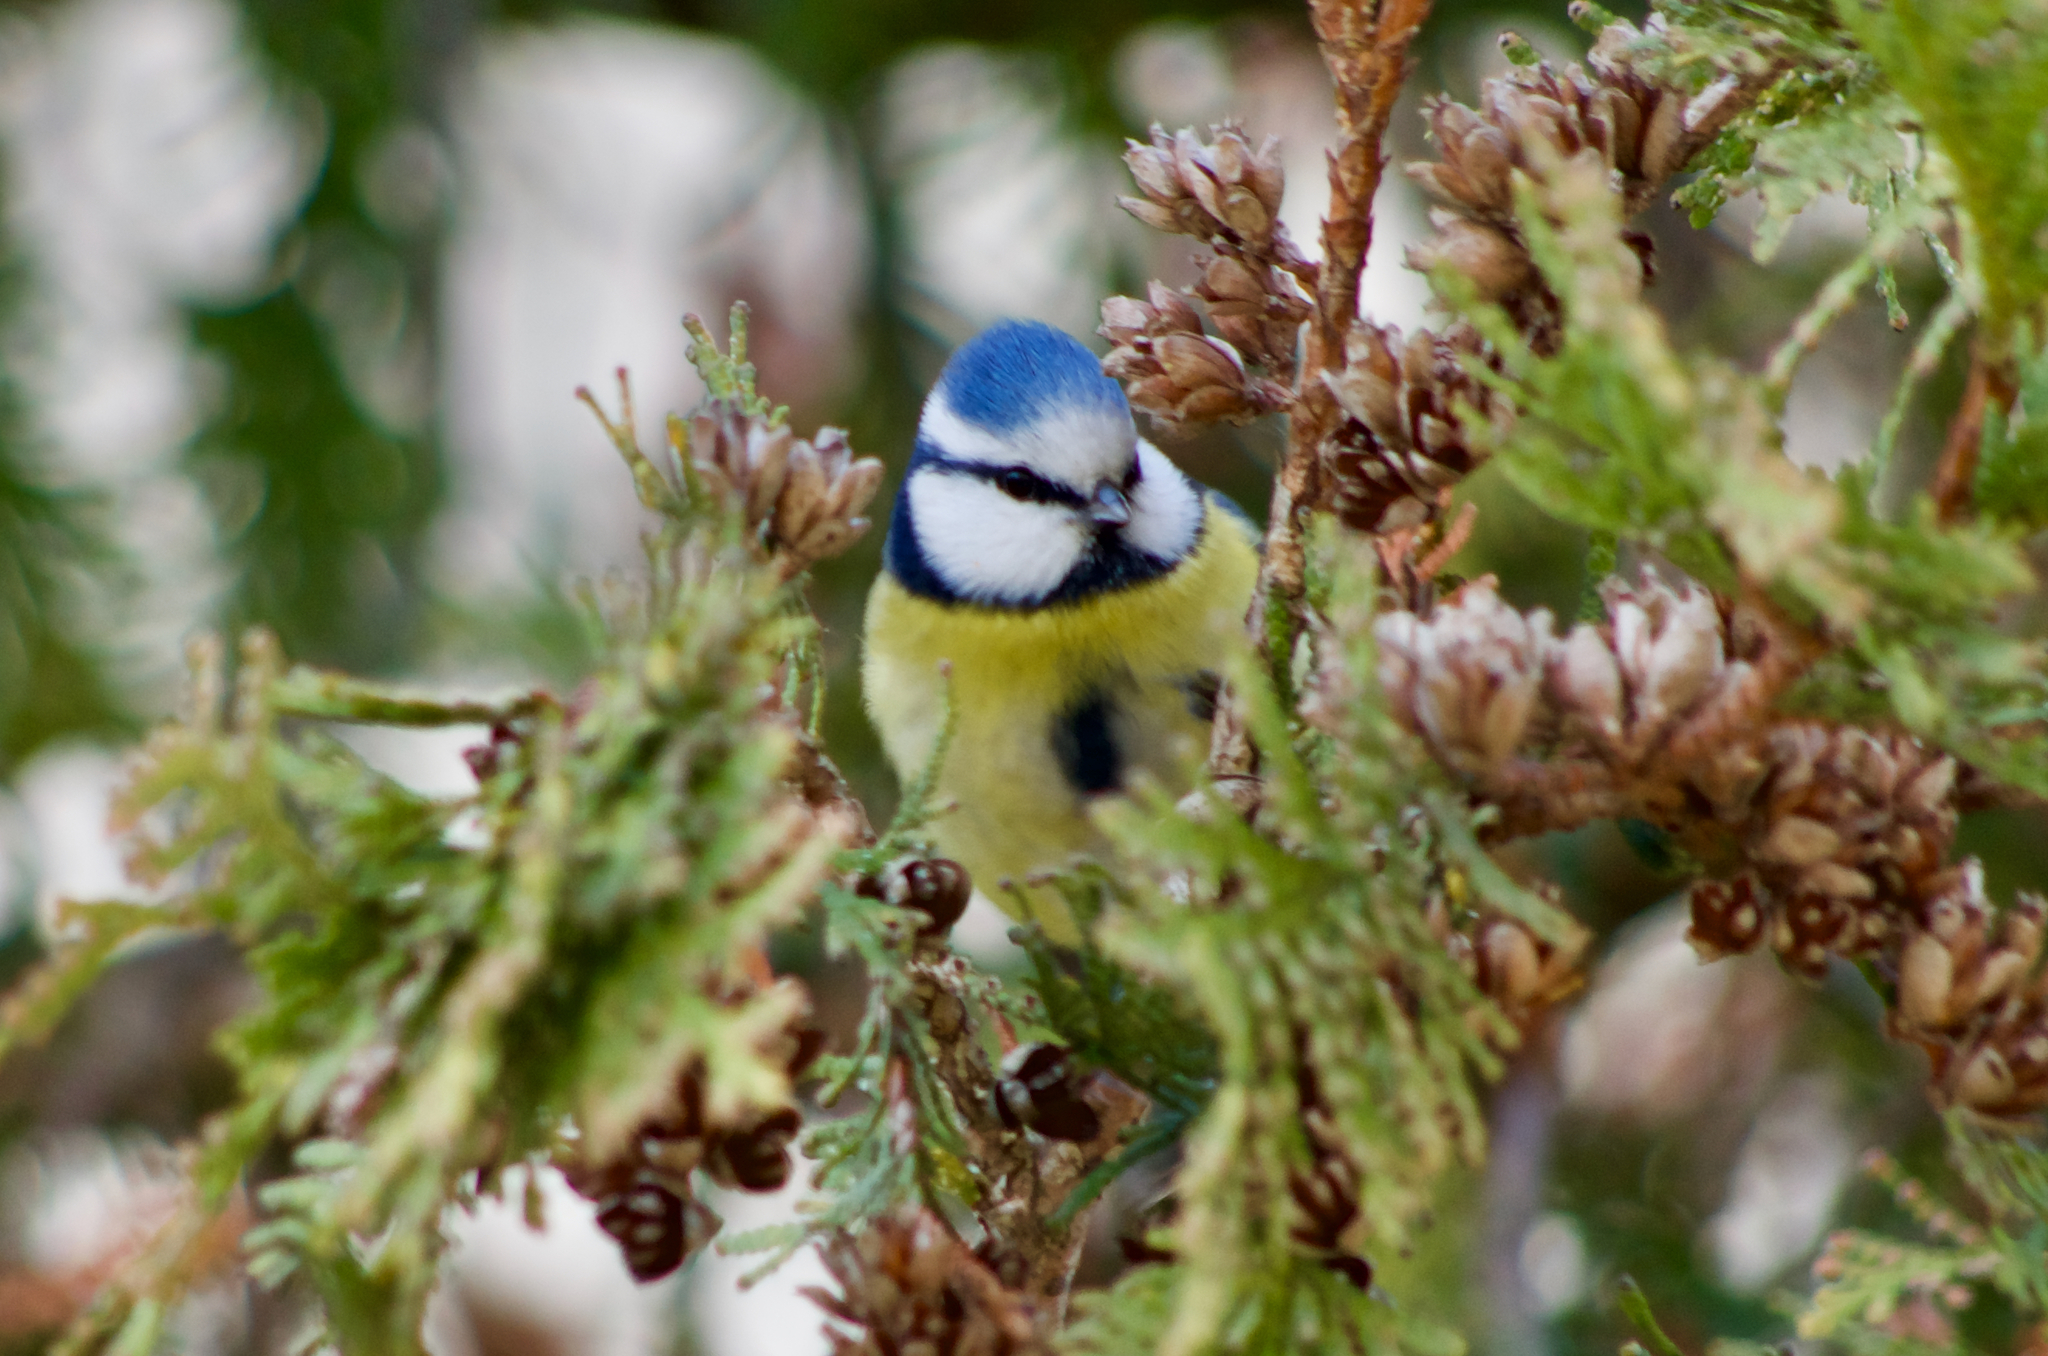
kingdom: Animalia
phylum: Chordata
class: Aves
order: Passeriformes
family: Paridae
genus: Cyanistes
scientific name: Cyanistes caeruleus
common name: Eurasian blue tit
